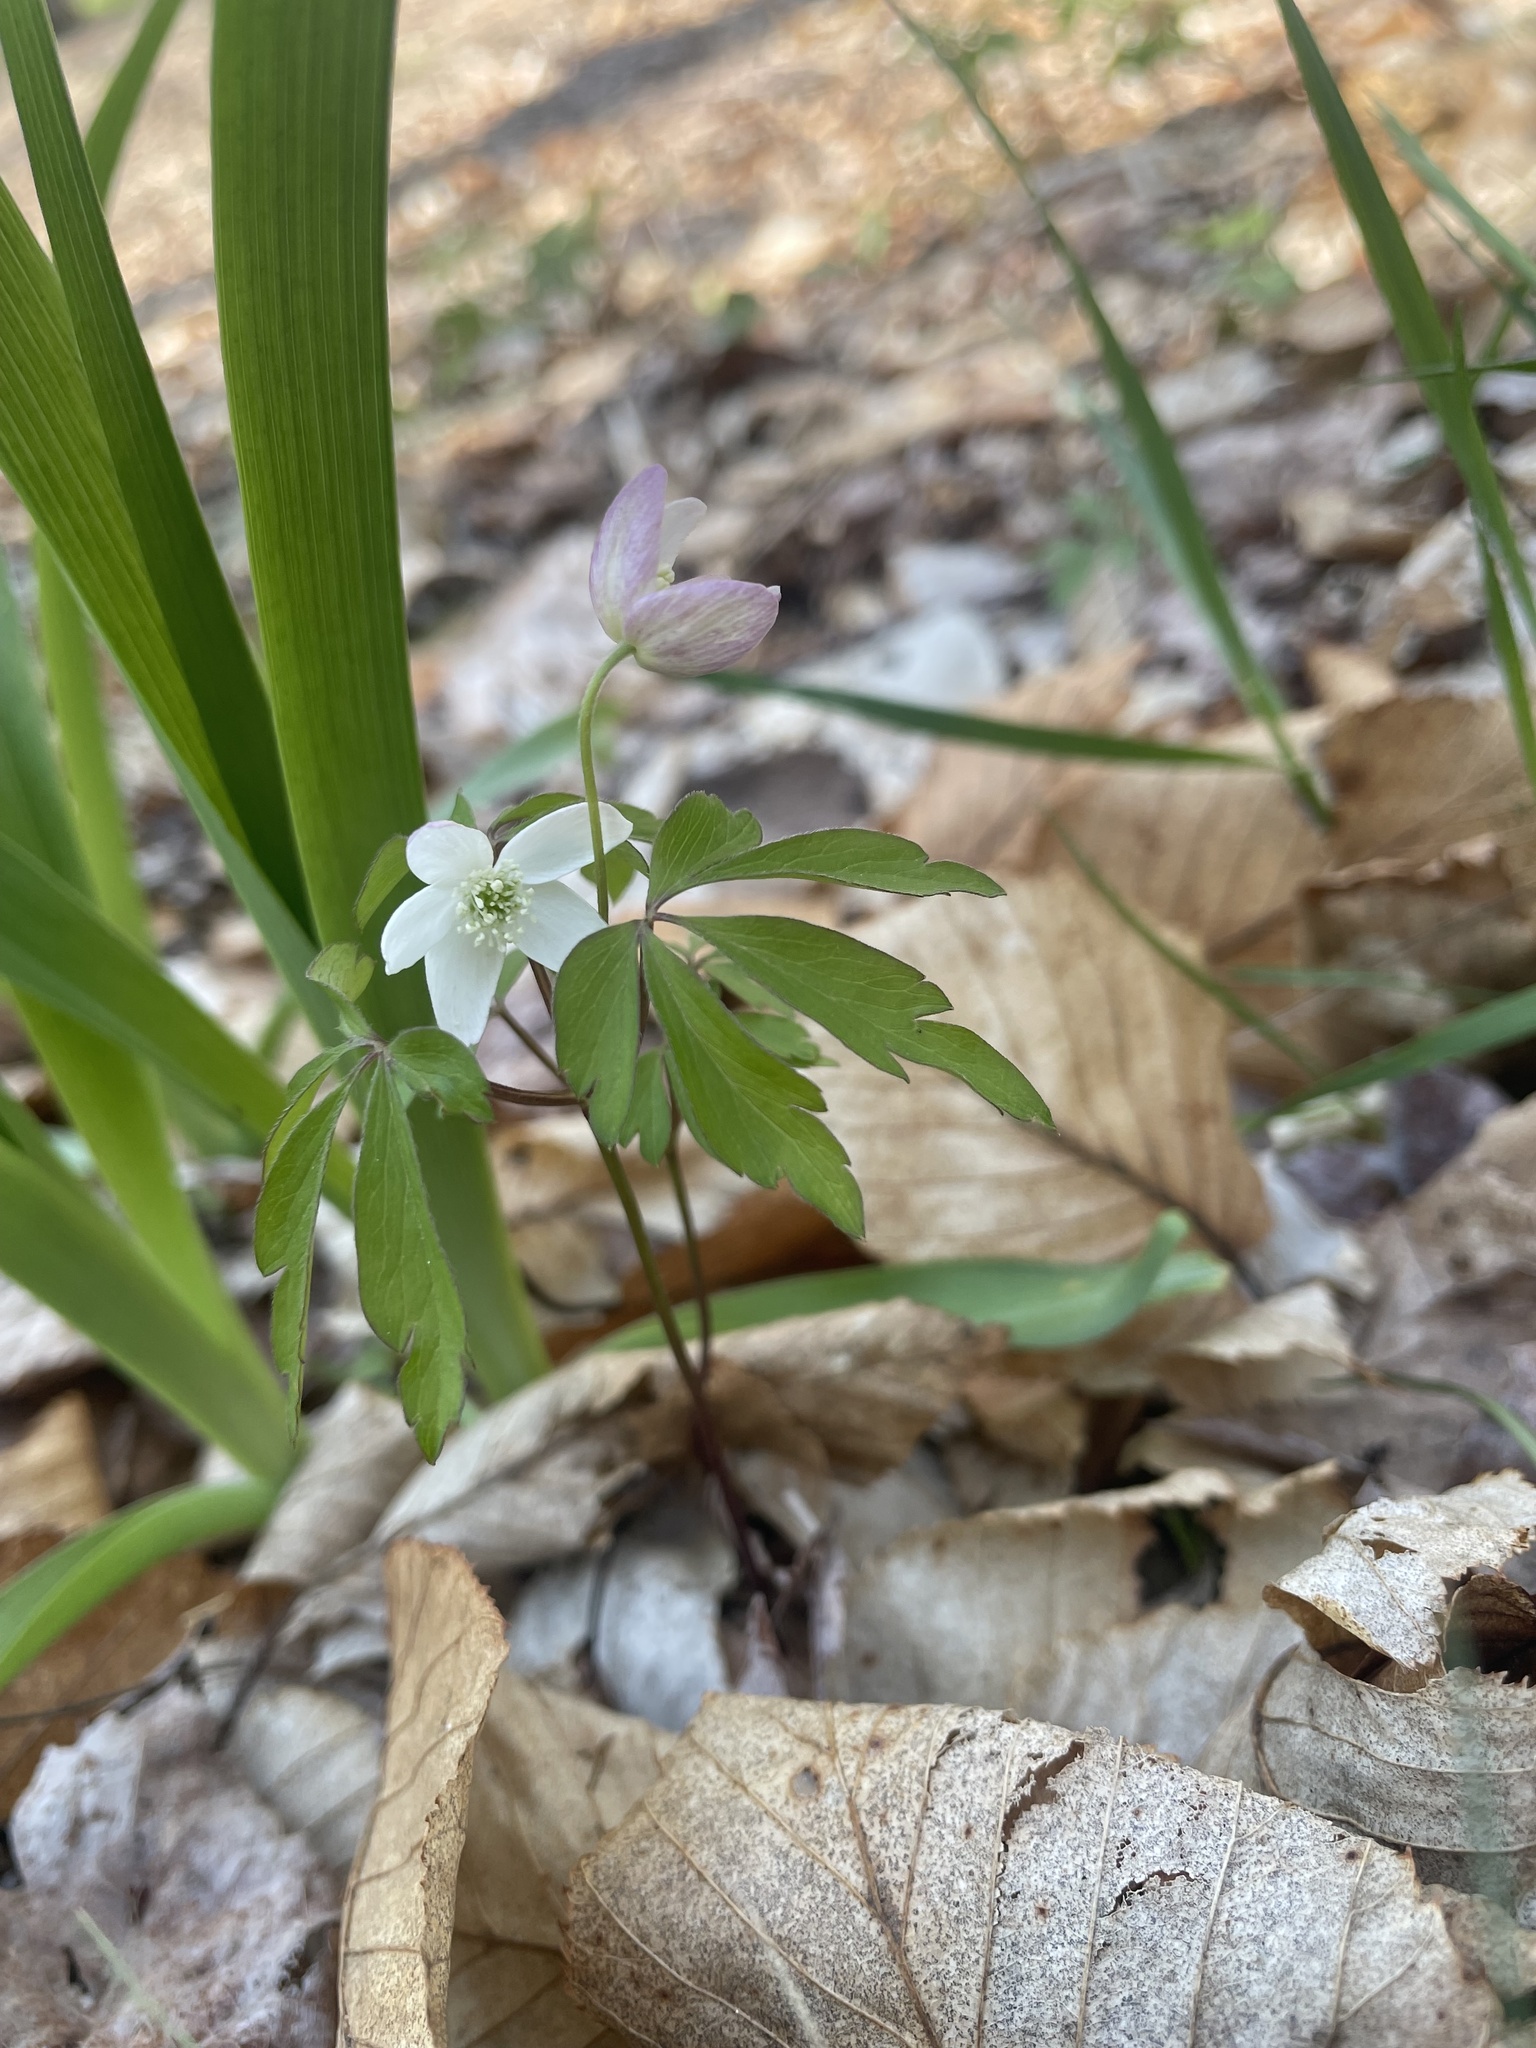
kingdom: Plantae
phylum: Tracheophyta
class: Magnoliopsida
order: Ranunculales
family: Ranunculaceae
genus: Anemone
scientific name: Anemone quinquefolia
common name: Wood anemone
